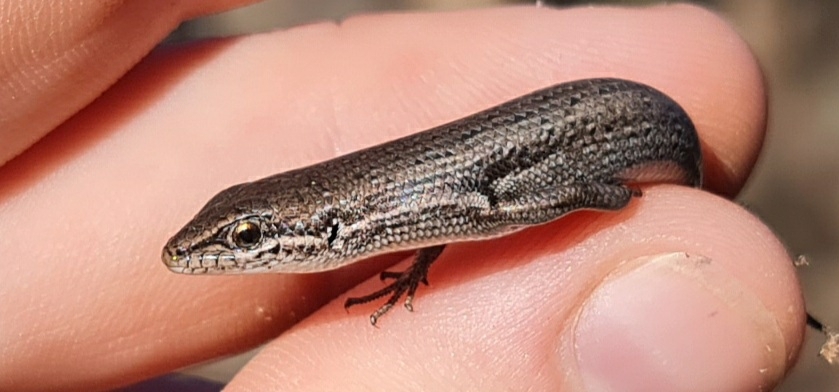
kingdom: Animalia
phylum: Chordata
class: Squamata
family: Scincidae
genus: Morethia
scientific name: Morethia obscura
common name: Shrubland morethia skink
